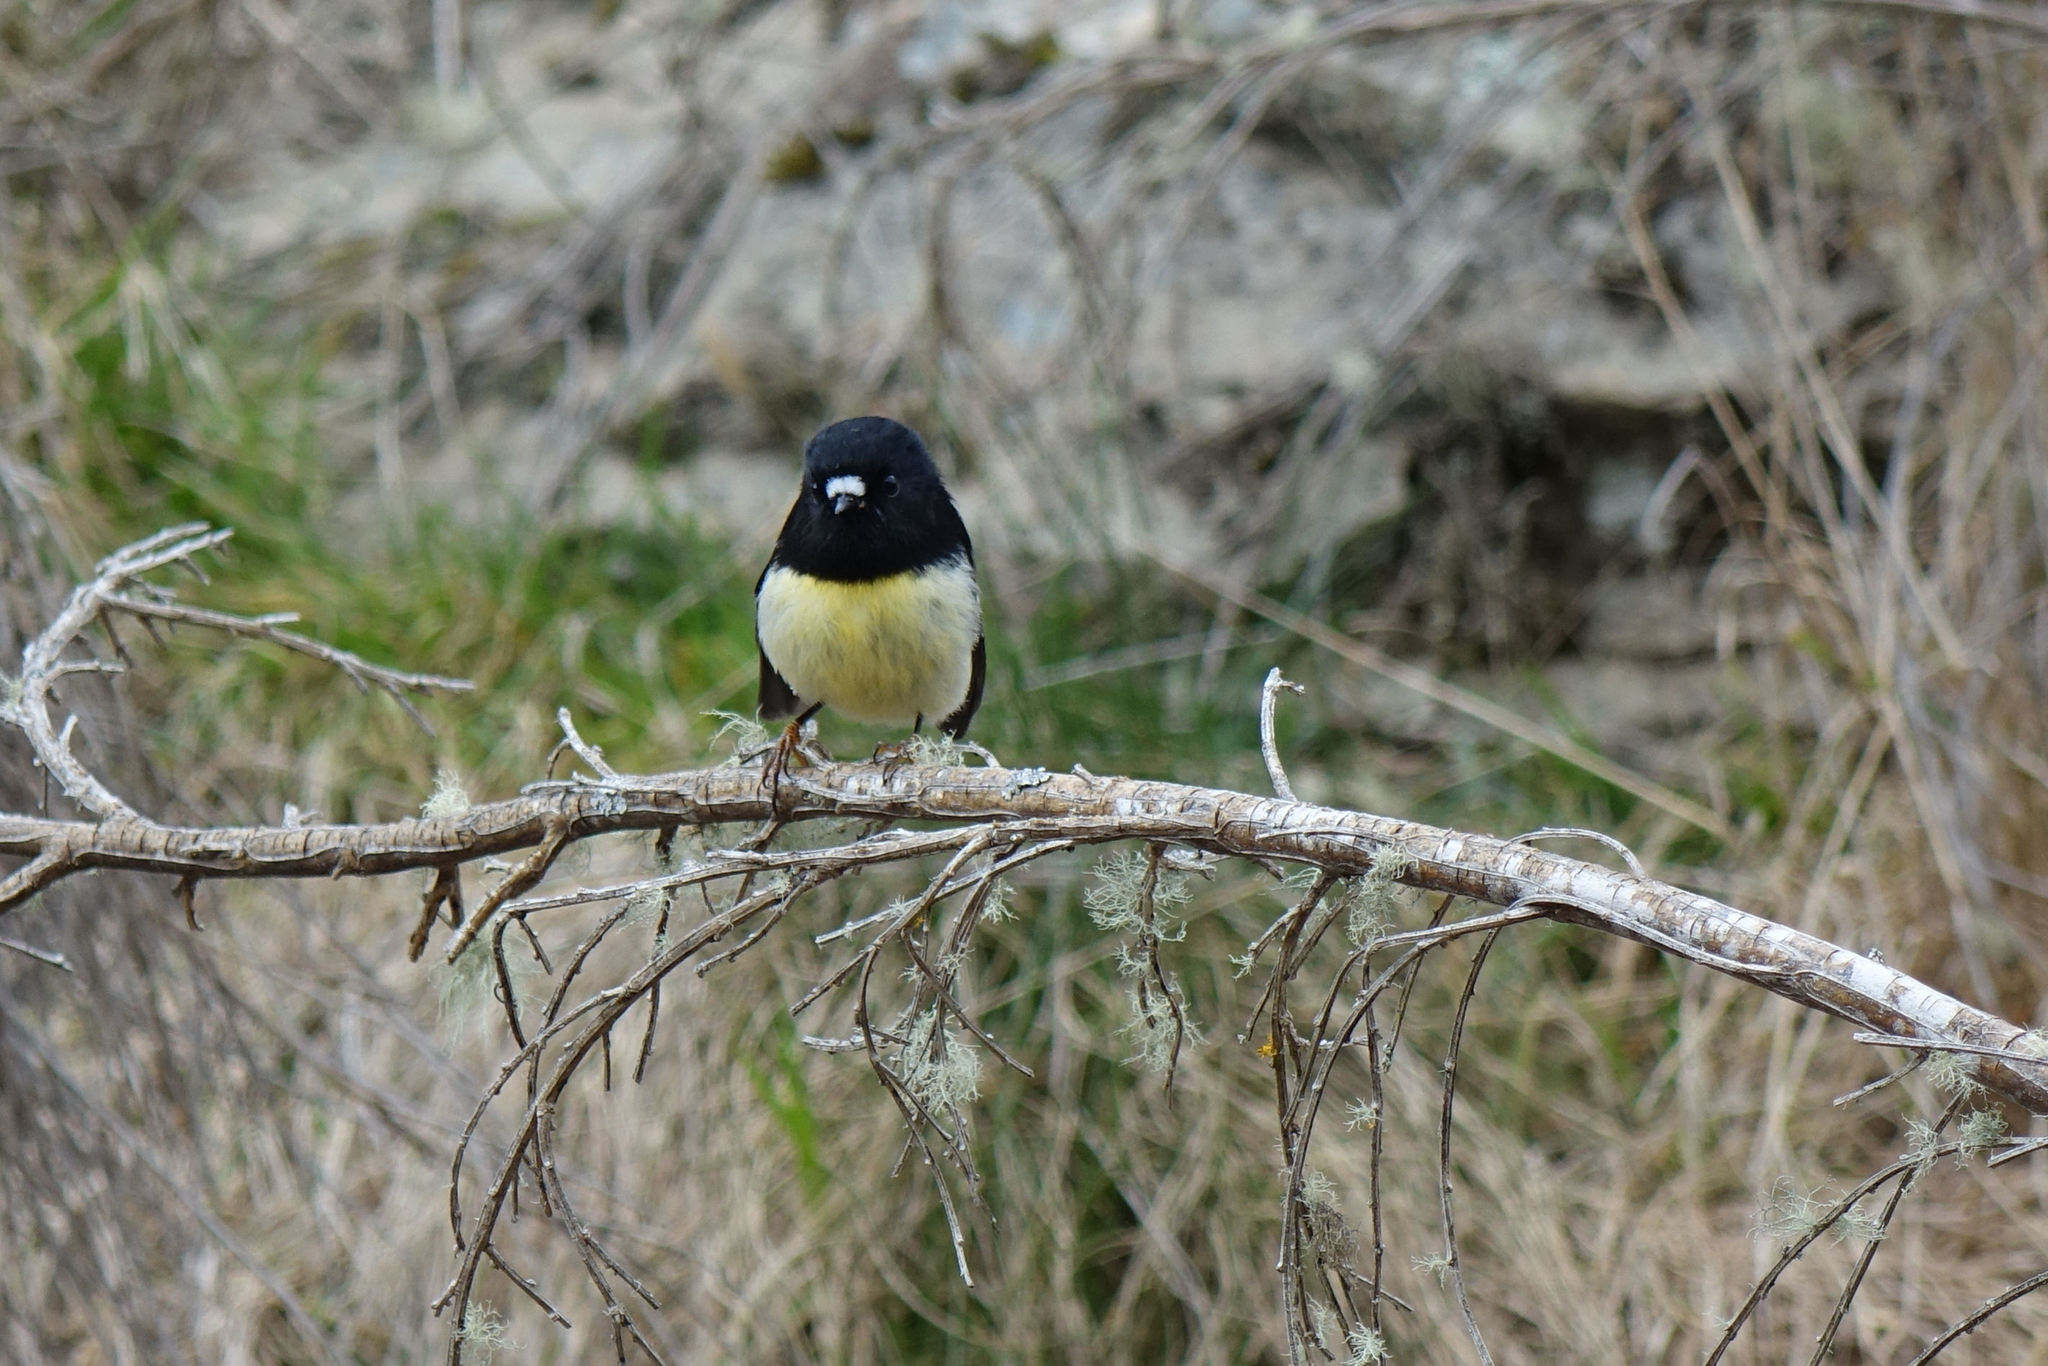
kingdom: Animalia
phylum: Chordata
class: Aves
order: Passeriformes
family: Petroicidae
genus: Petroica
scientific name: Petroica macrocephala
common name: Tomtit
